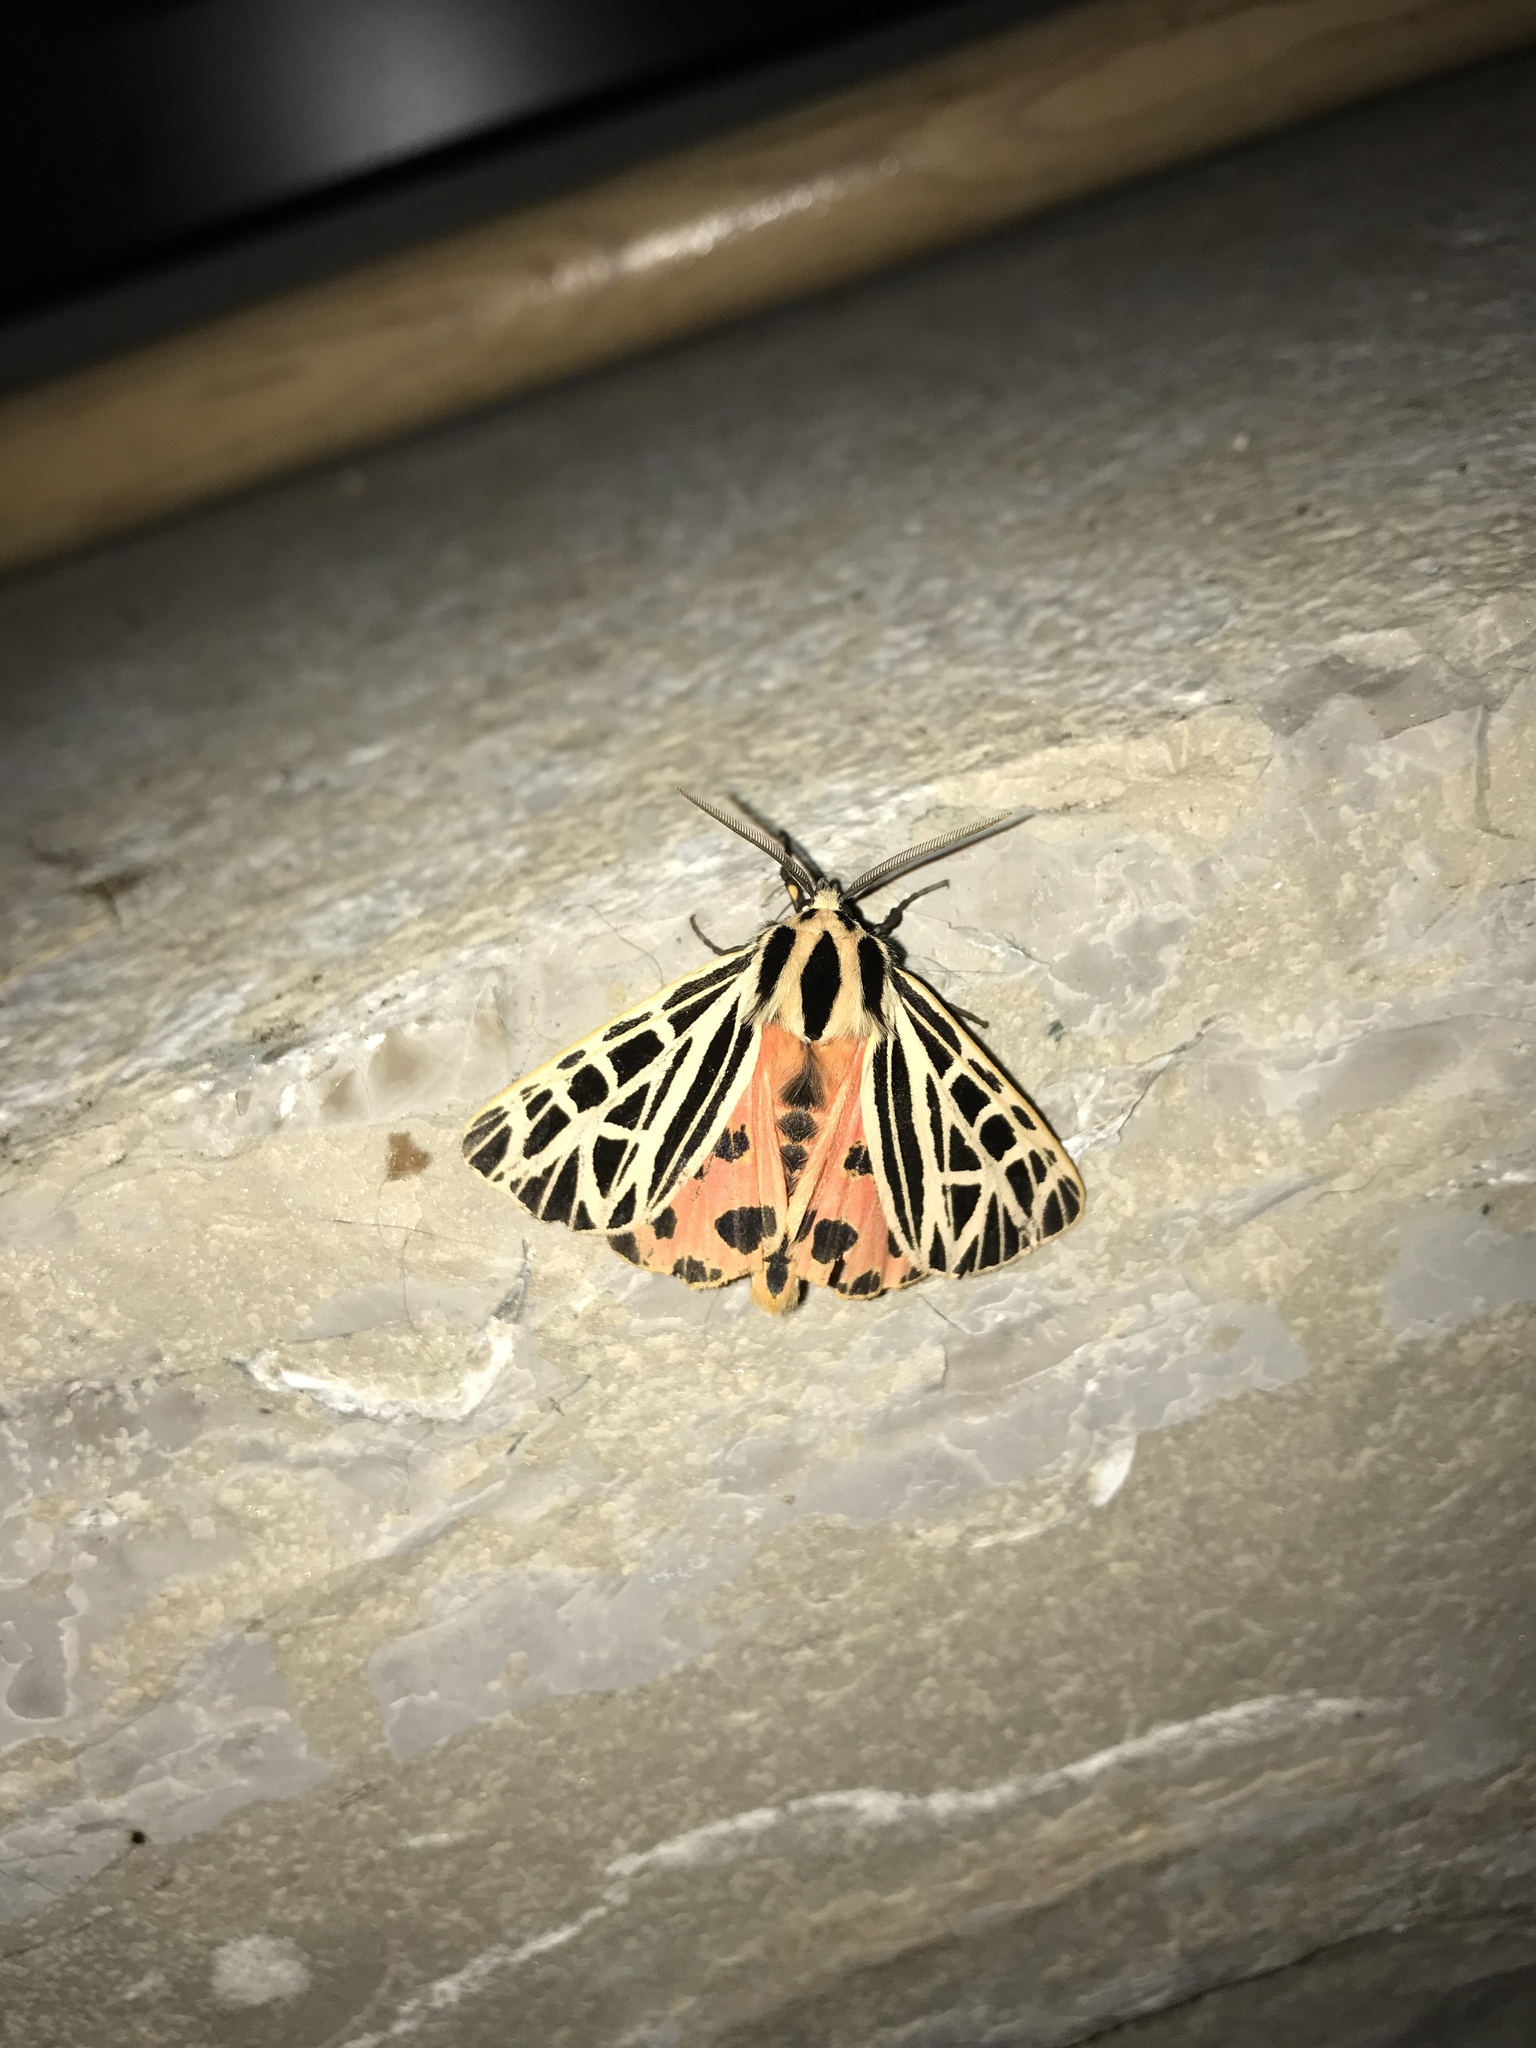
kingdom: Animalia
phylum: Arthropoda
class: Insecta
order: Lepidoptera
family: Erebidae
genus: Grammia
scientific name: Grammia virgo
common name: Virgin tiger moth
